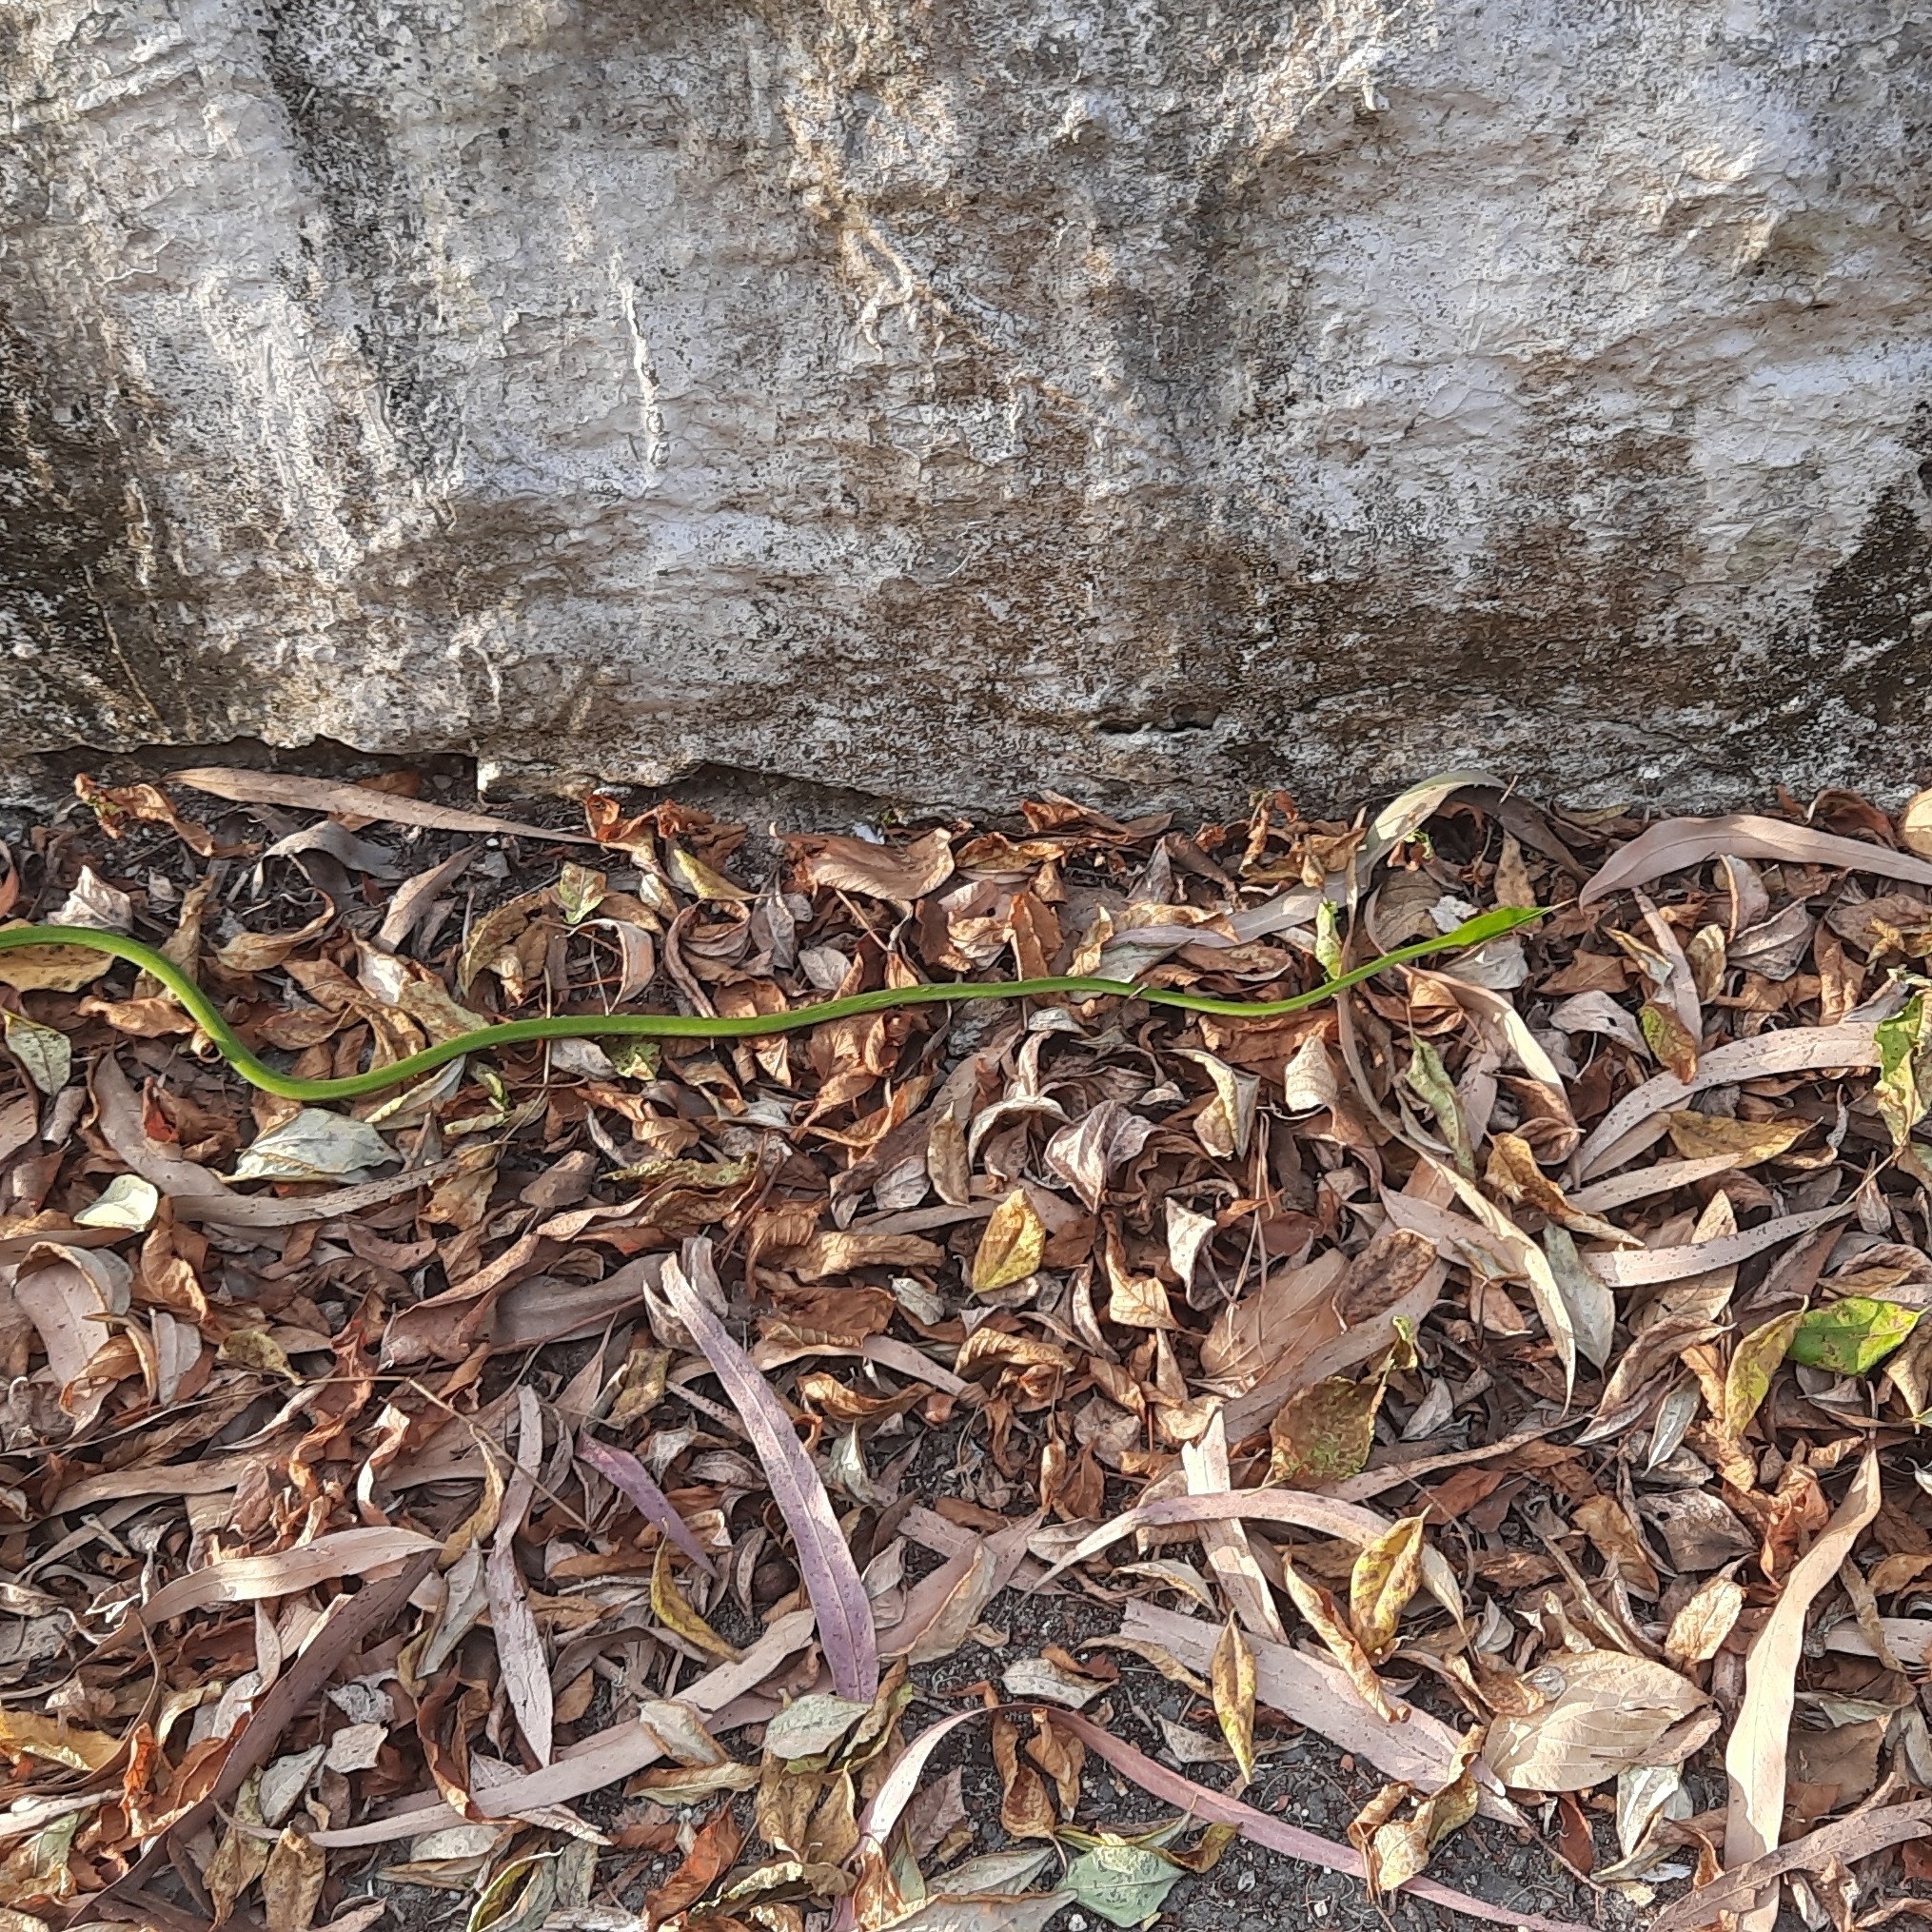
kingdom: Animalia
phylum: Chordata
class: Squamata
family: Colubridae
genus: Ahaetulla
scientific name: Ahaetulla oxyrhyncha
